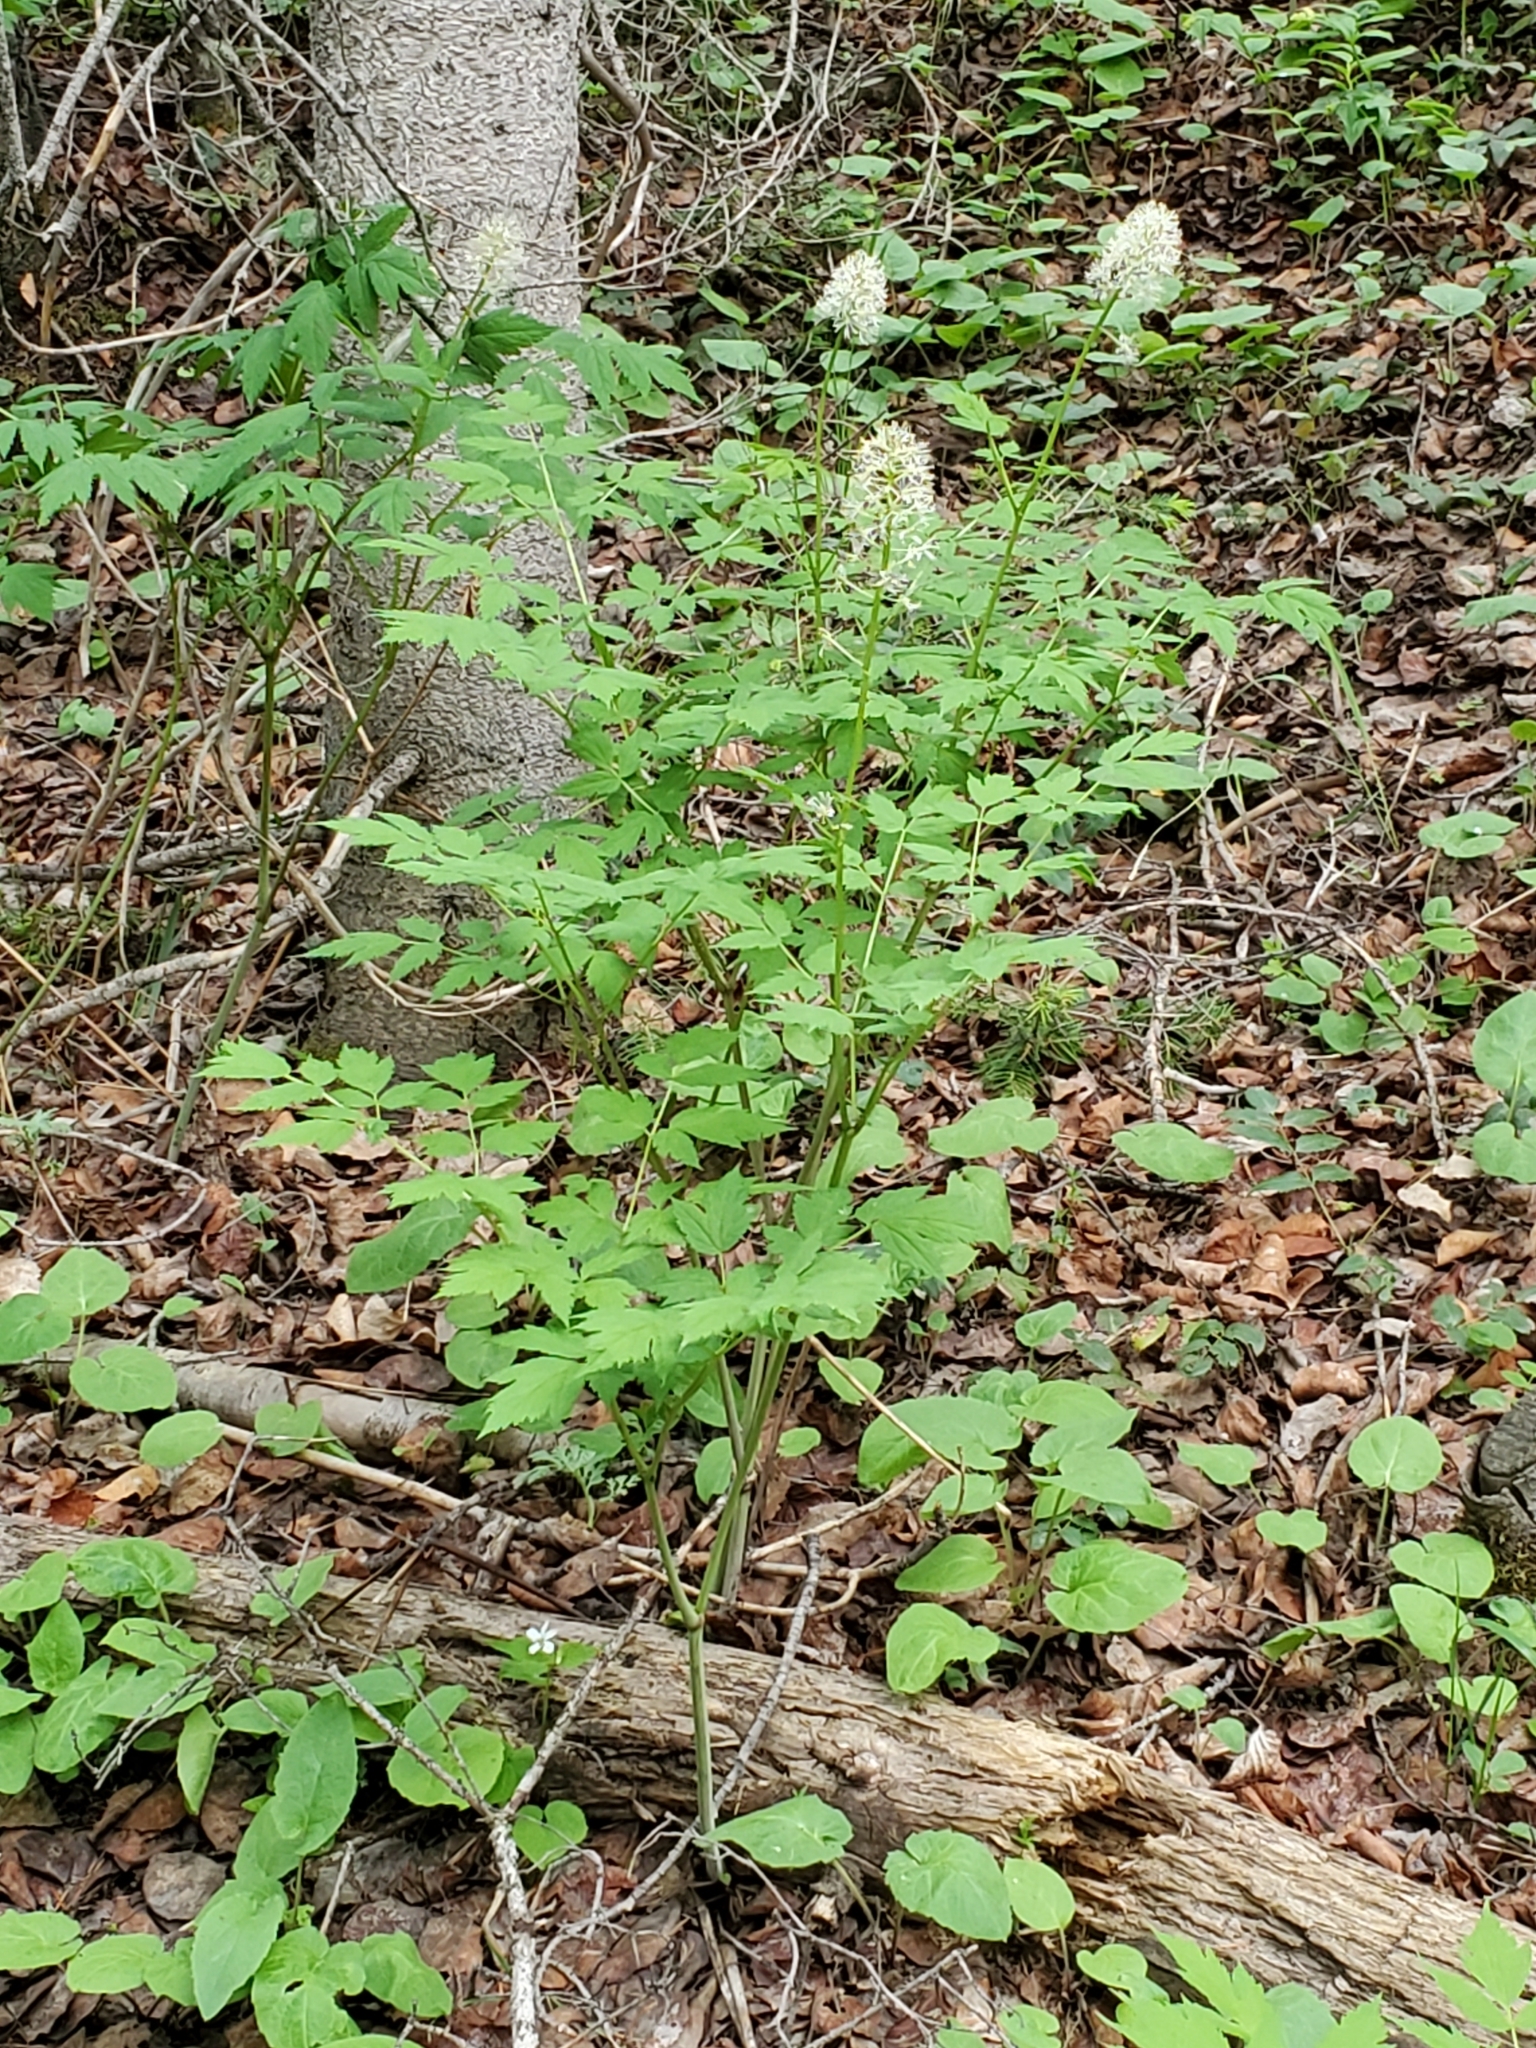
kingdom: Plantae
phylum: Tracheophyta
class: Magnoliopsida
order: Ranunculales
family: Ranunculaceae
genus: Actaea
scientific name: Actaea rubra
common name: Red baneberry
